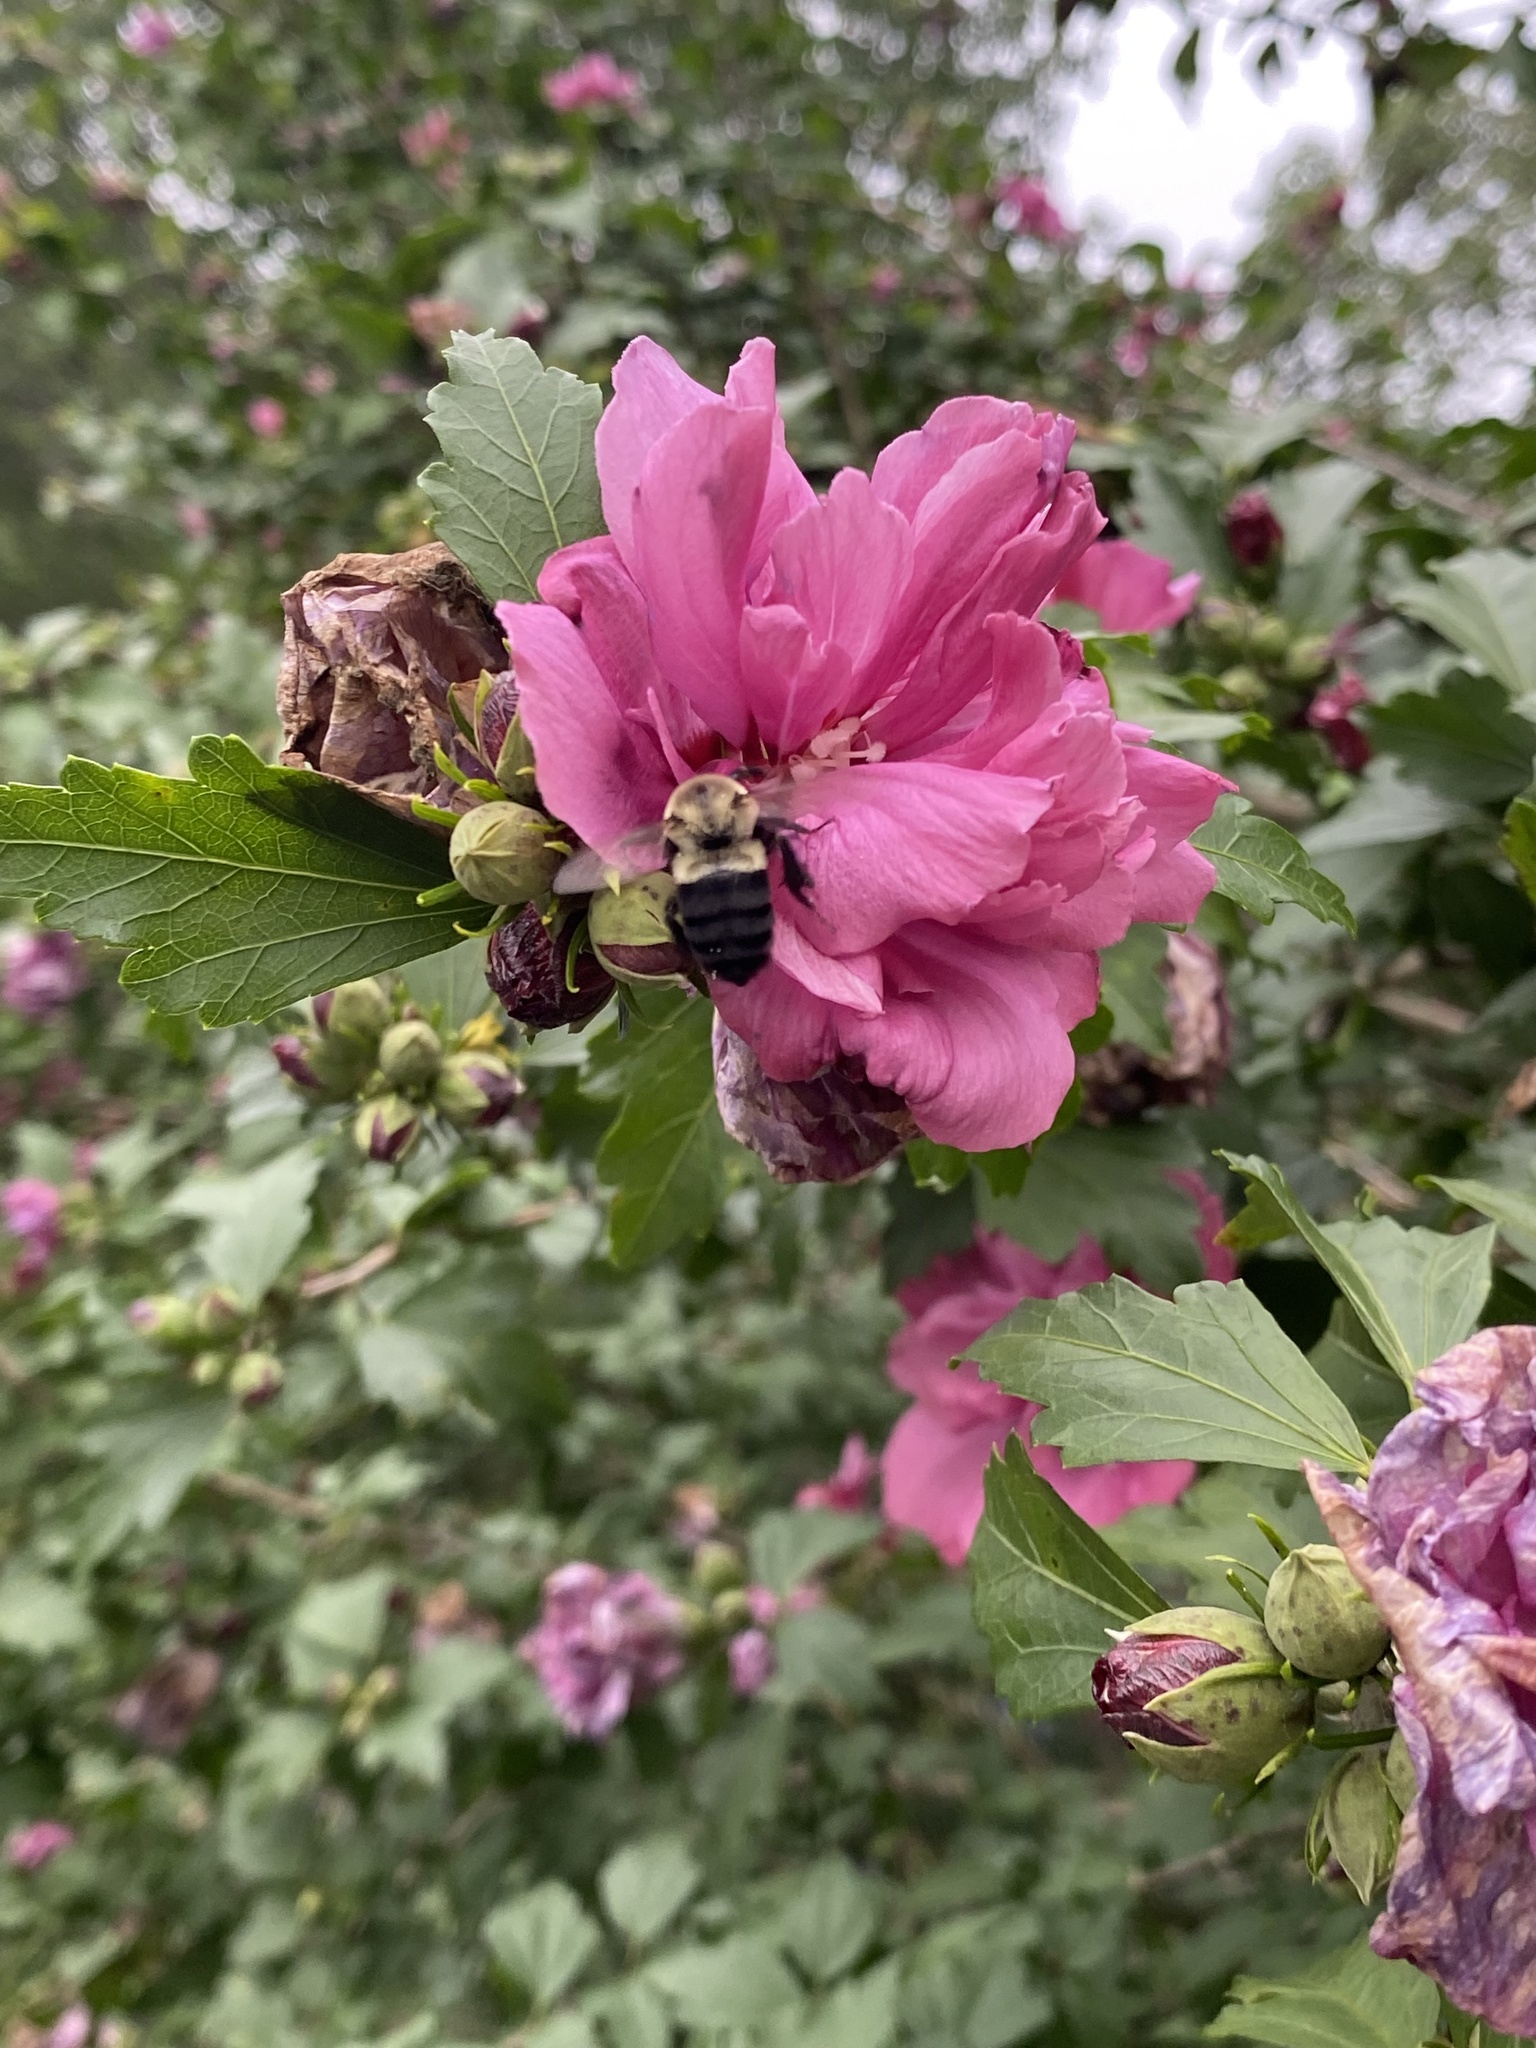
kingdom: Animalia
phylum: Arthropoda
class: Insecta
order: Hymenoptera
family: Apidae
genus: Bombus
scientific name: Bombus impatiens
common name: Common eastern bumble bee
